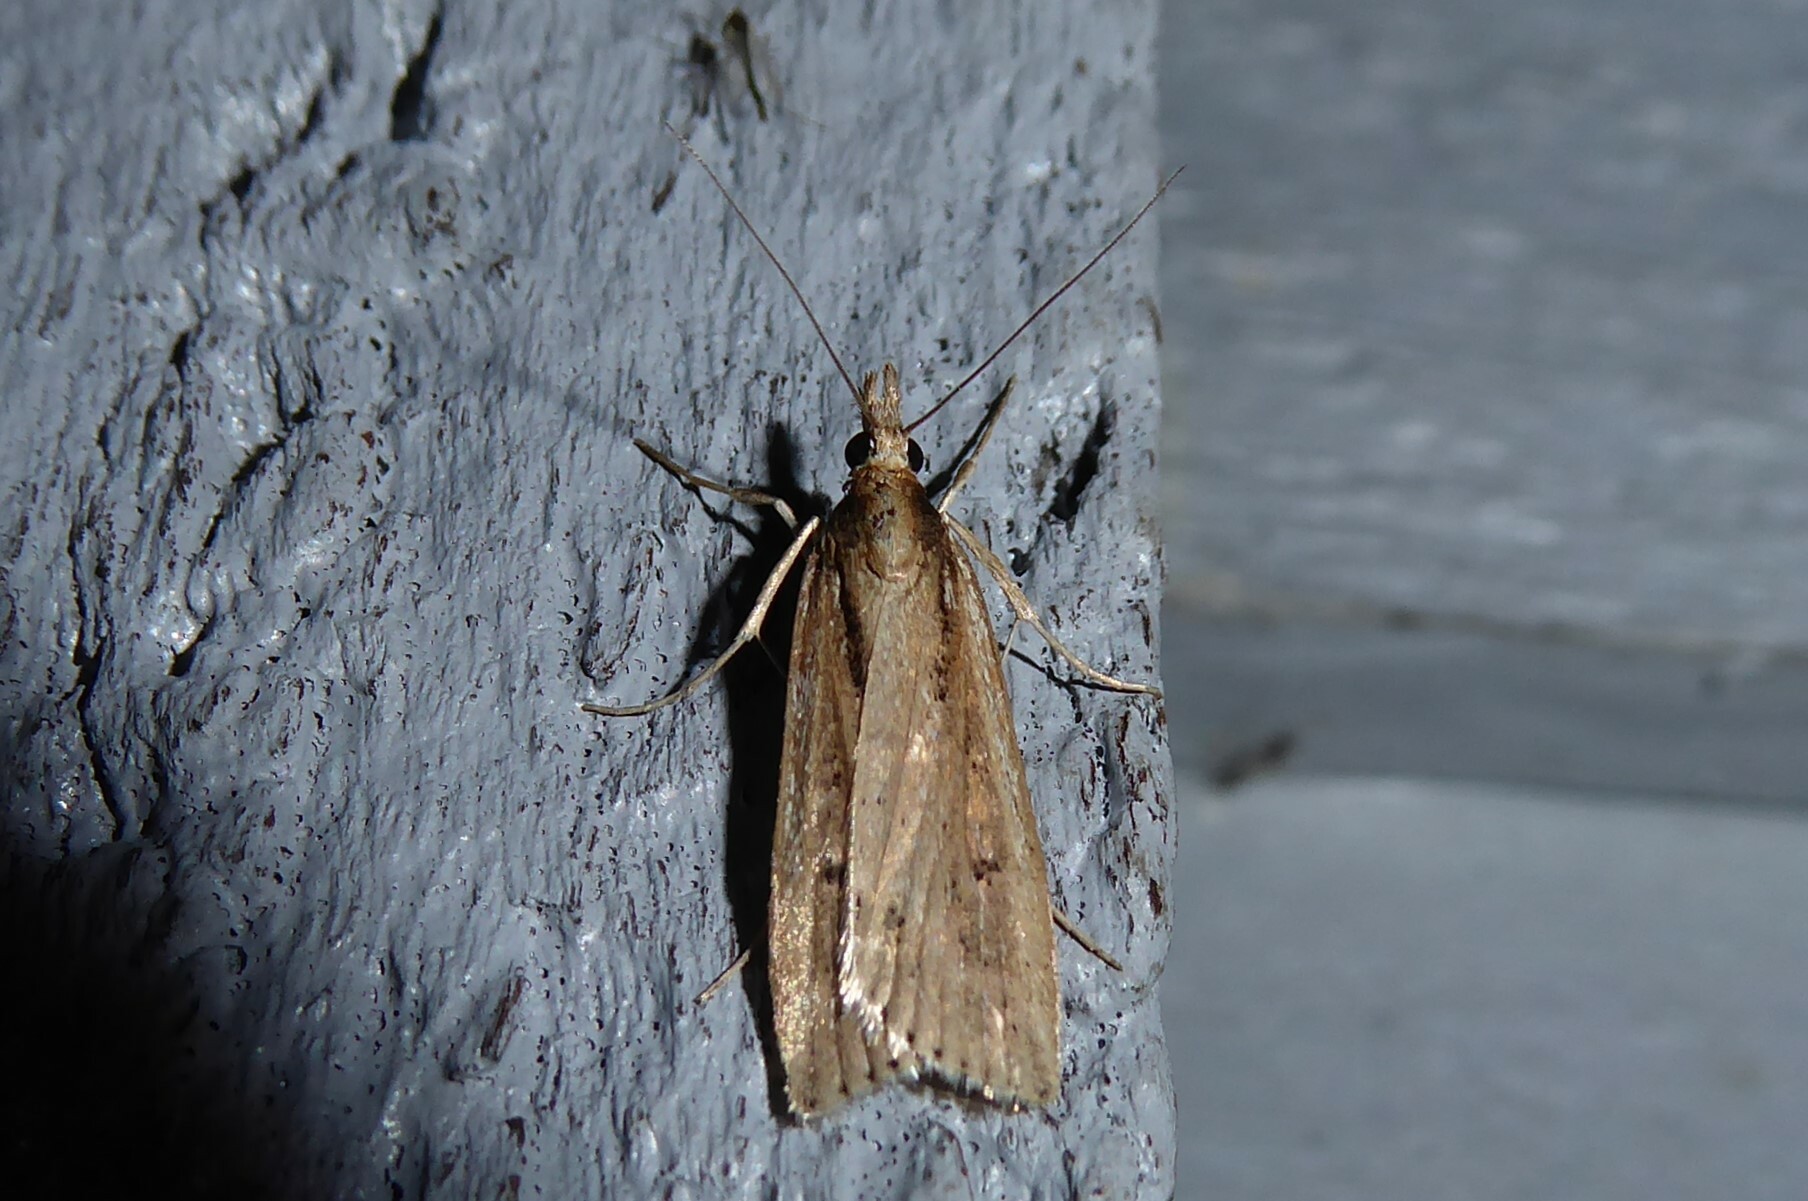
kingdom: Animalia
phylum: Arthropoda
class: Insecta
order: Lepidoptera
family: Crambidae
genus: Eudonia
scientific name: Eudonia sabulosella
